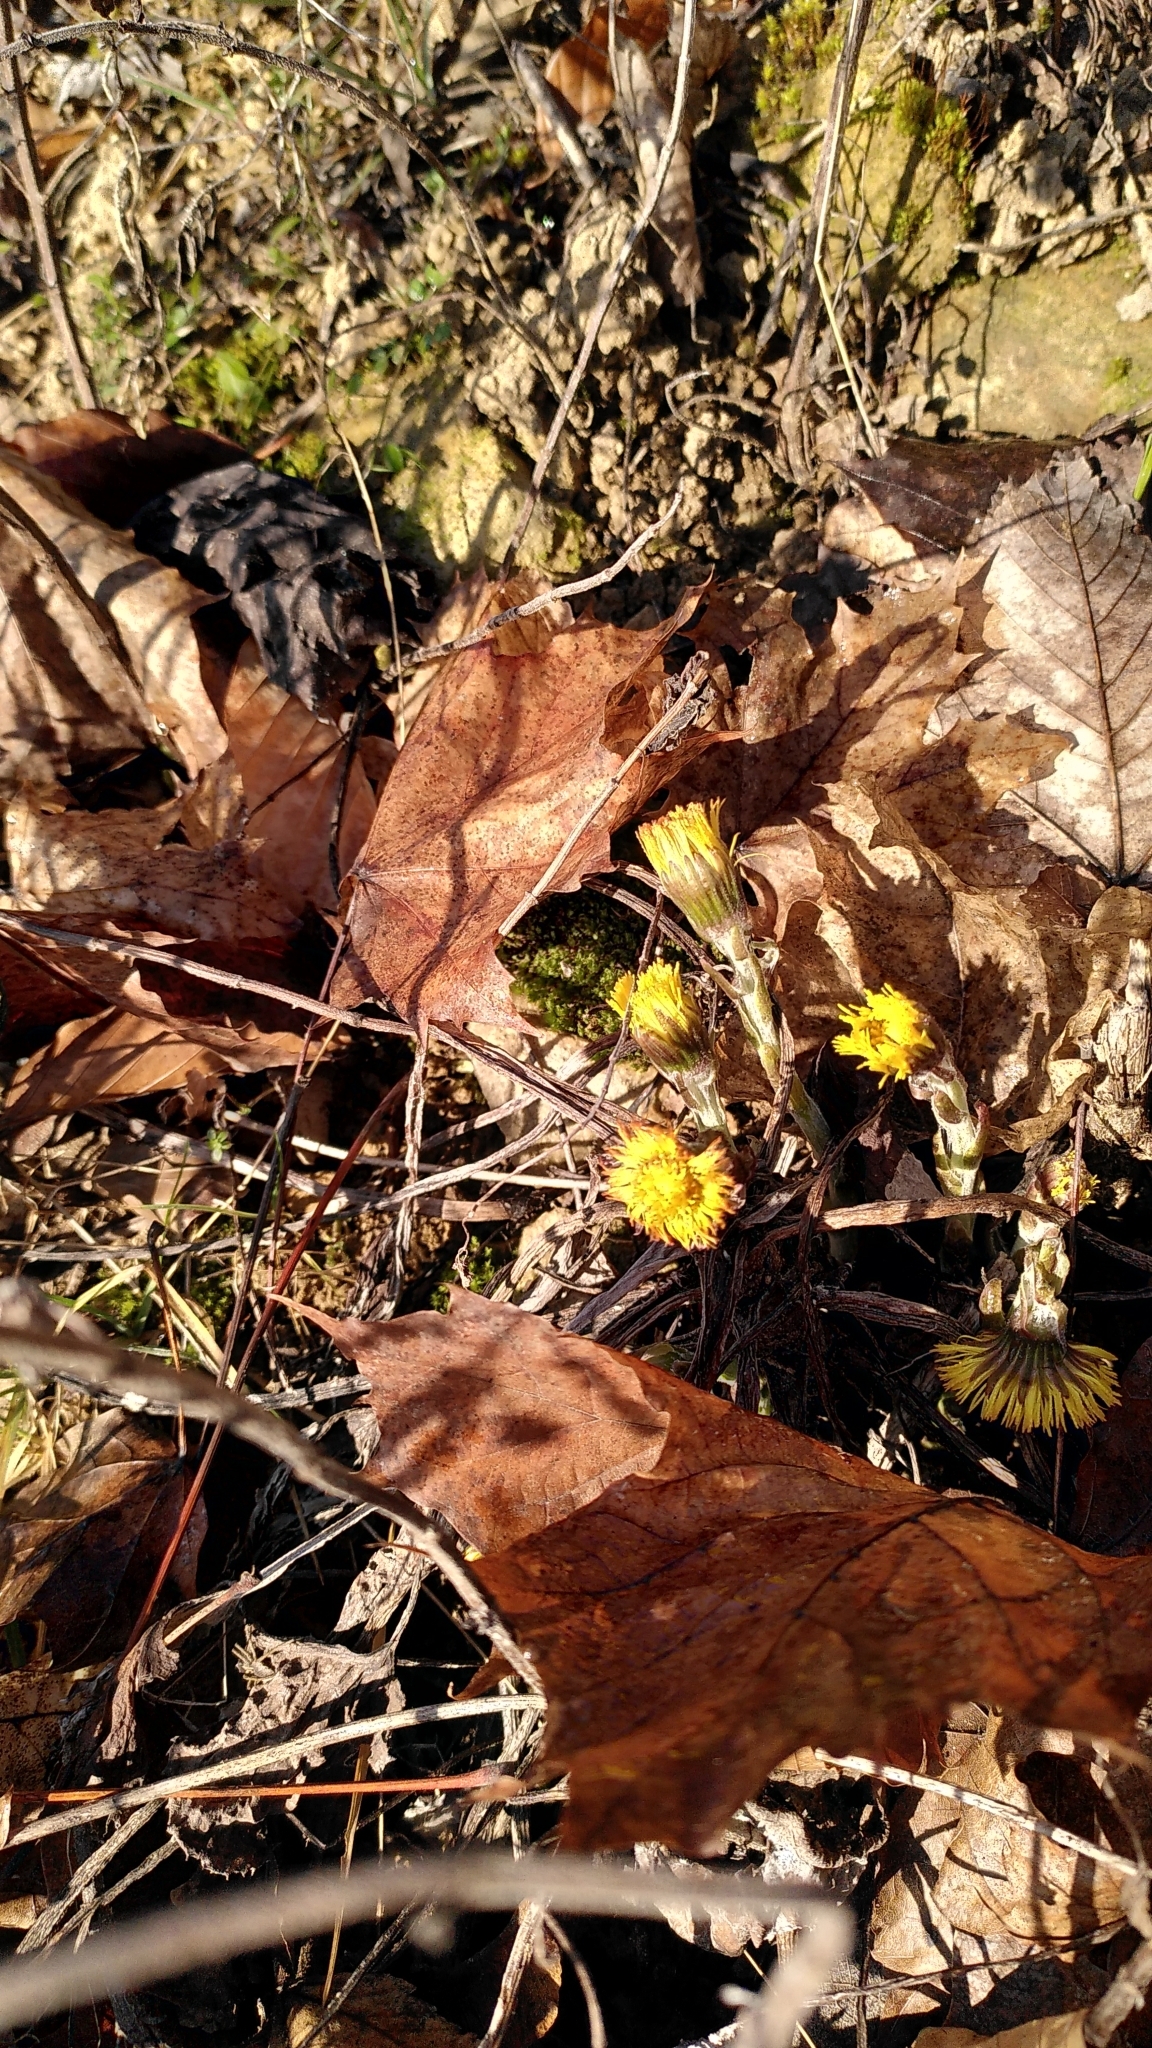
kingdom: Plantae
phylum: Tracheophyta
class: Magnoliopsida
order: Asterales
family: Asteraceae
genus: Tussilago
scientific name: Tussilago farfara
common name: Coltsfoot
